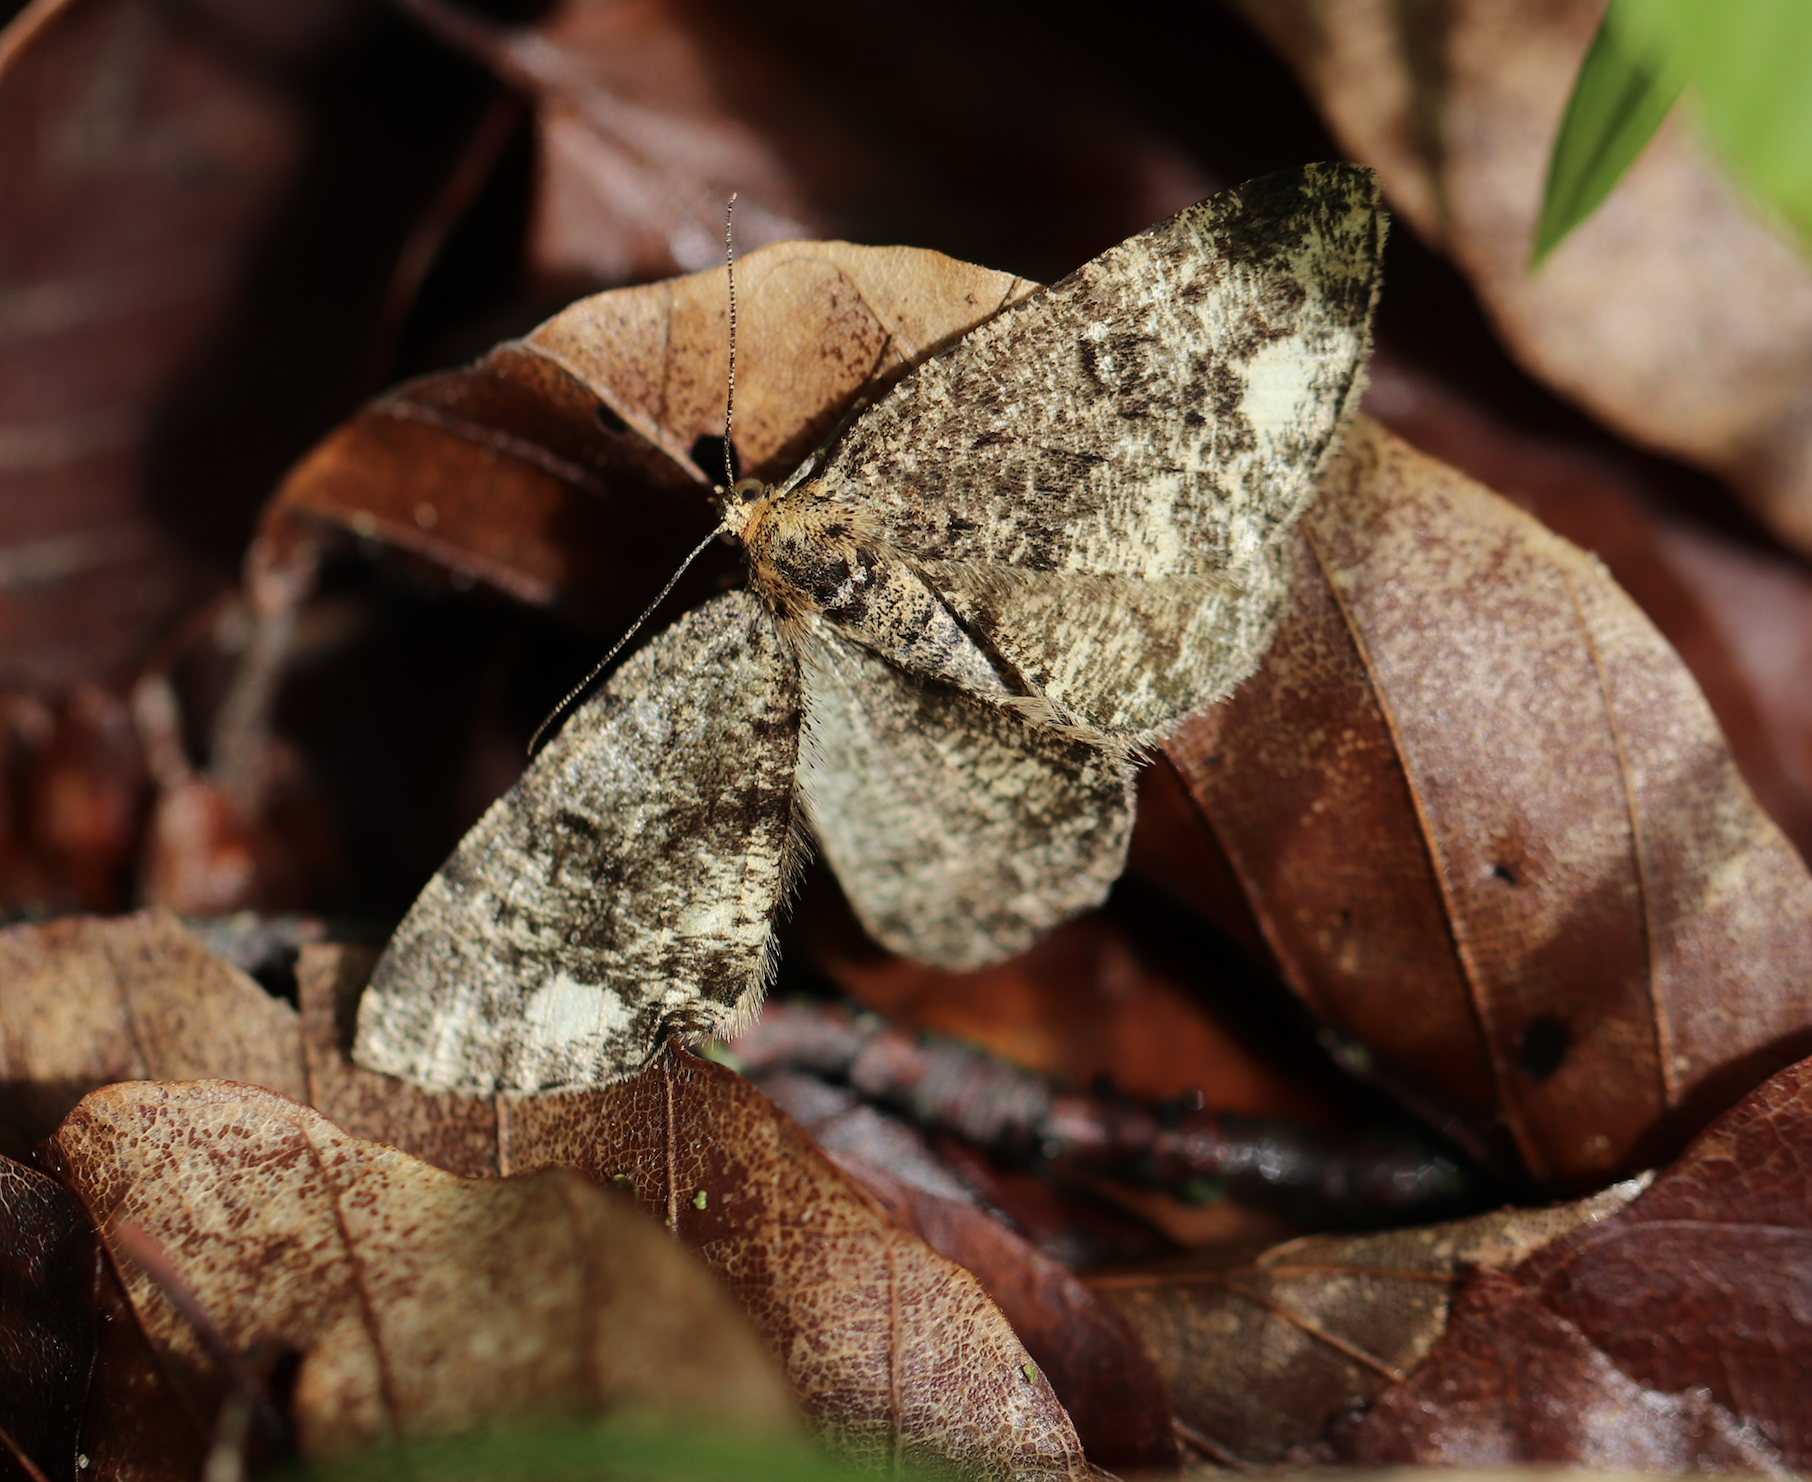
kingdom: Animalia
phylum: Arthropoda
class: Insecta
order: Lepidoptera
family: Geometridae
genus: Parectropis
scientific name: Parectropis similaria
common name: Brindled white-spot
